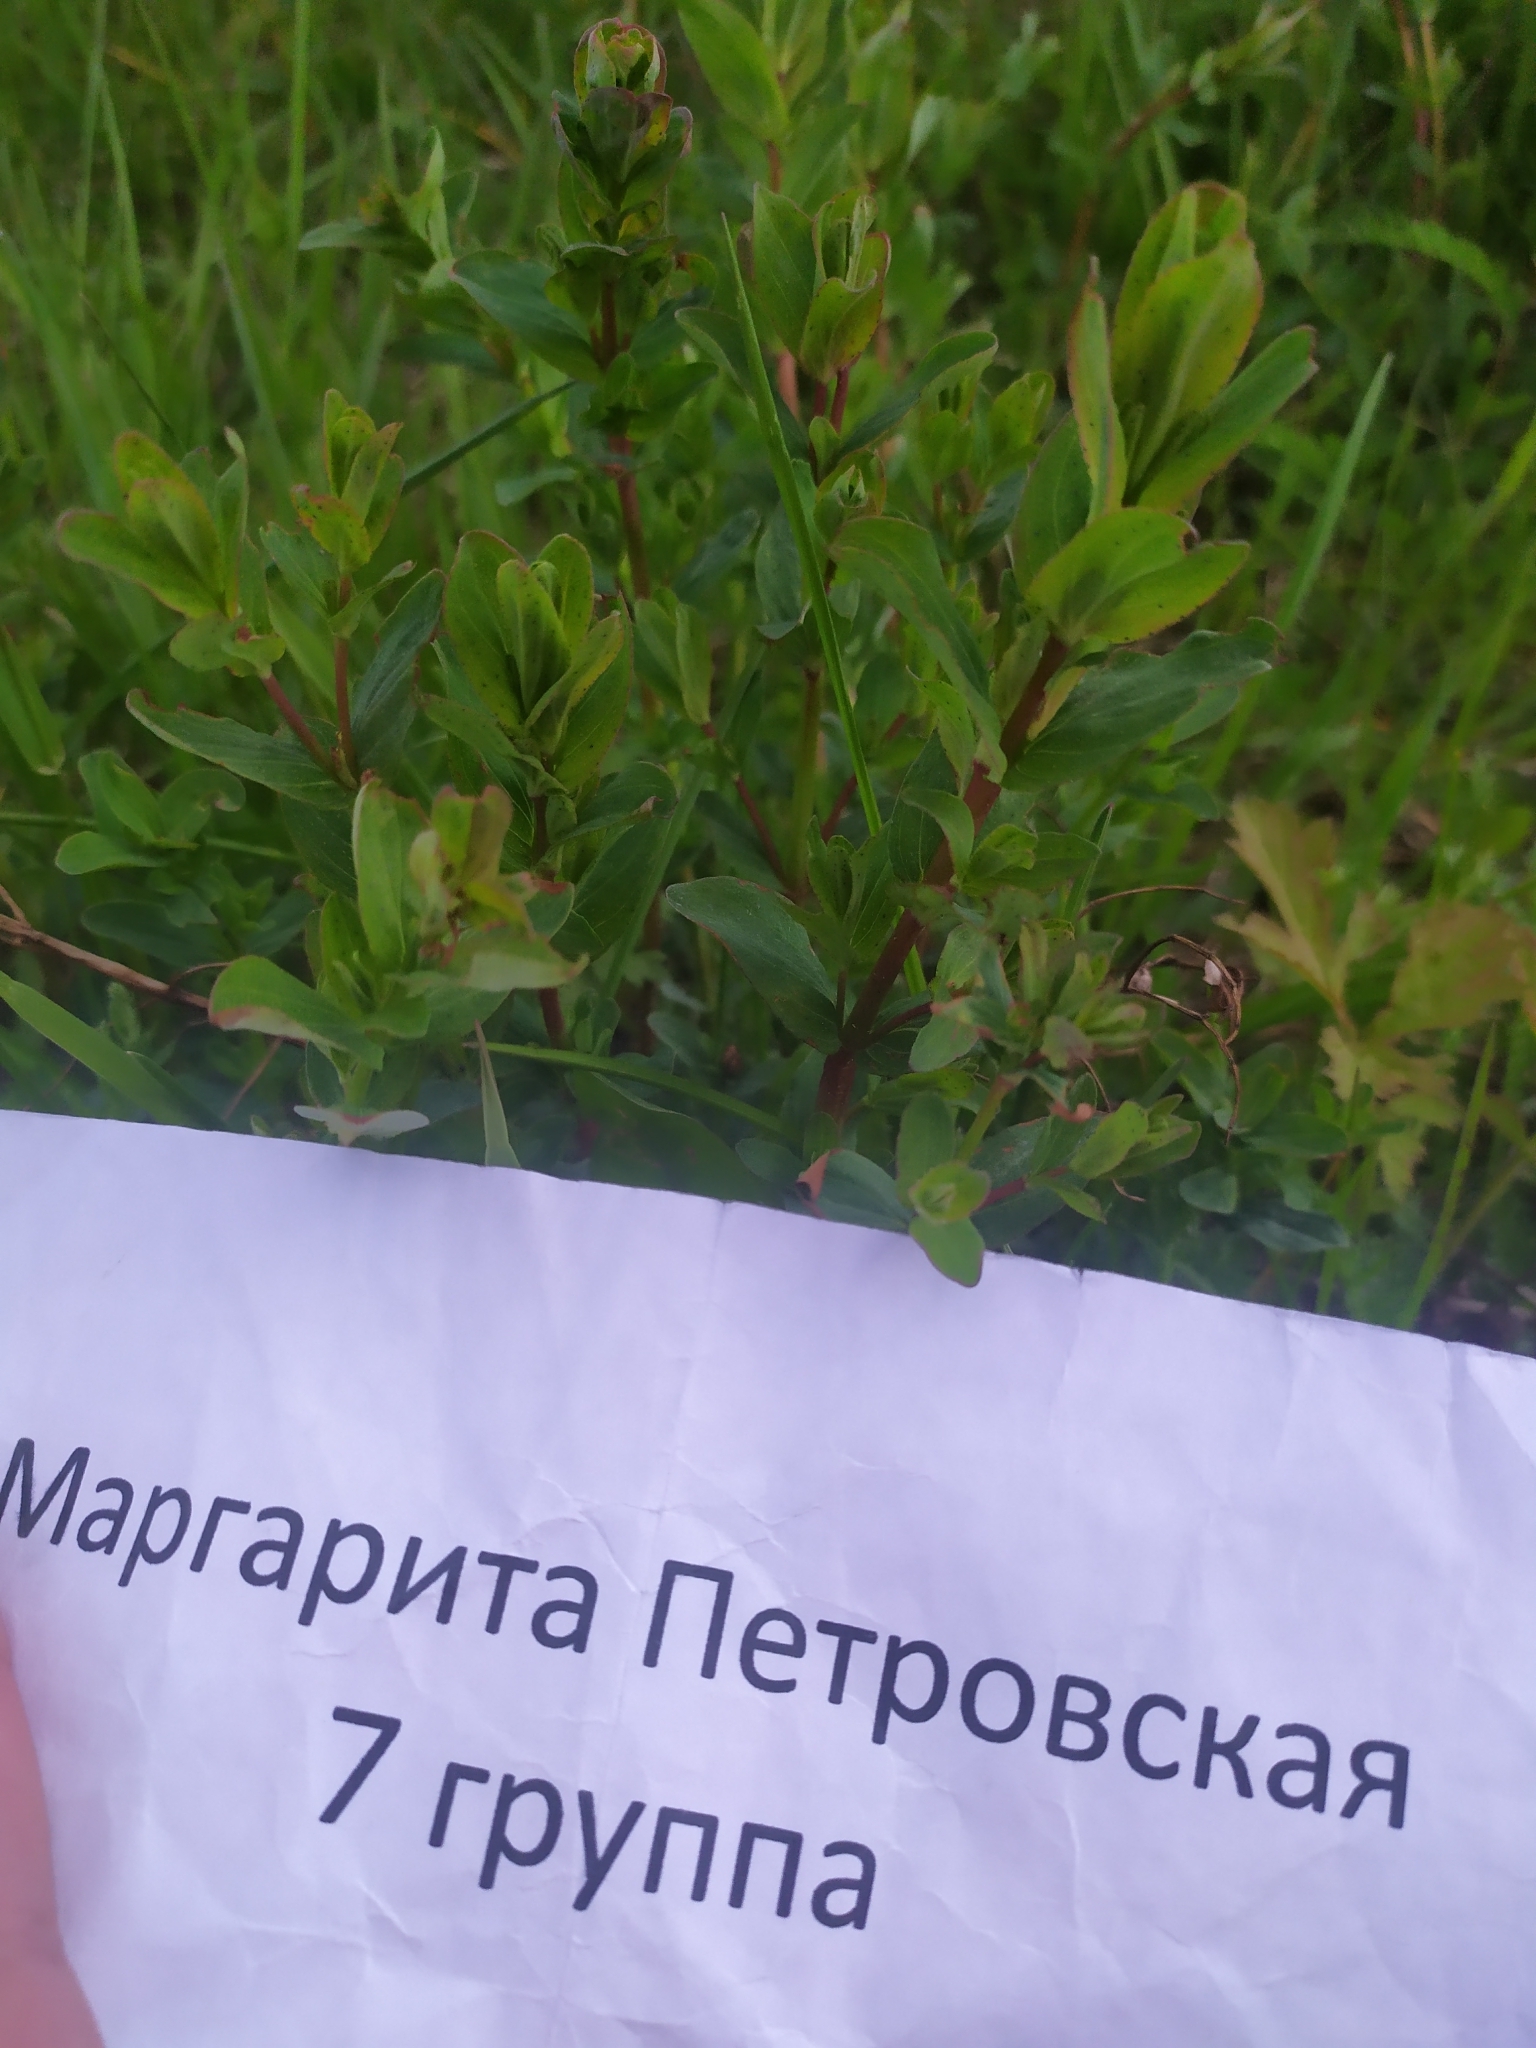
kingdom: Plantae
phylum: Tracheophyta
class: Magnoliopsida
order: Malpighiales
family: Hypericaceae
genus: Hypericum
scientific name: Hypericum maculatum
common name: Imperforate st. john's-wort
